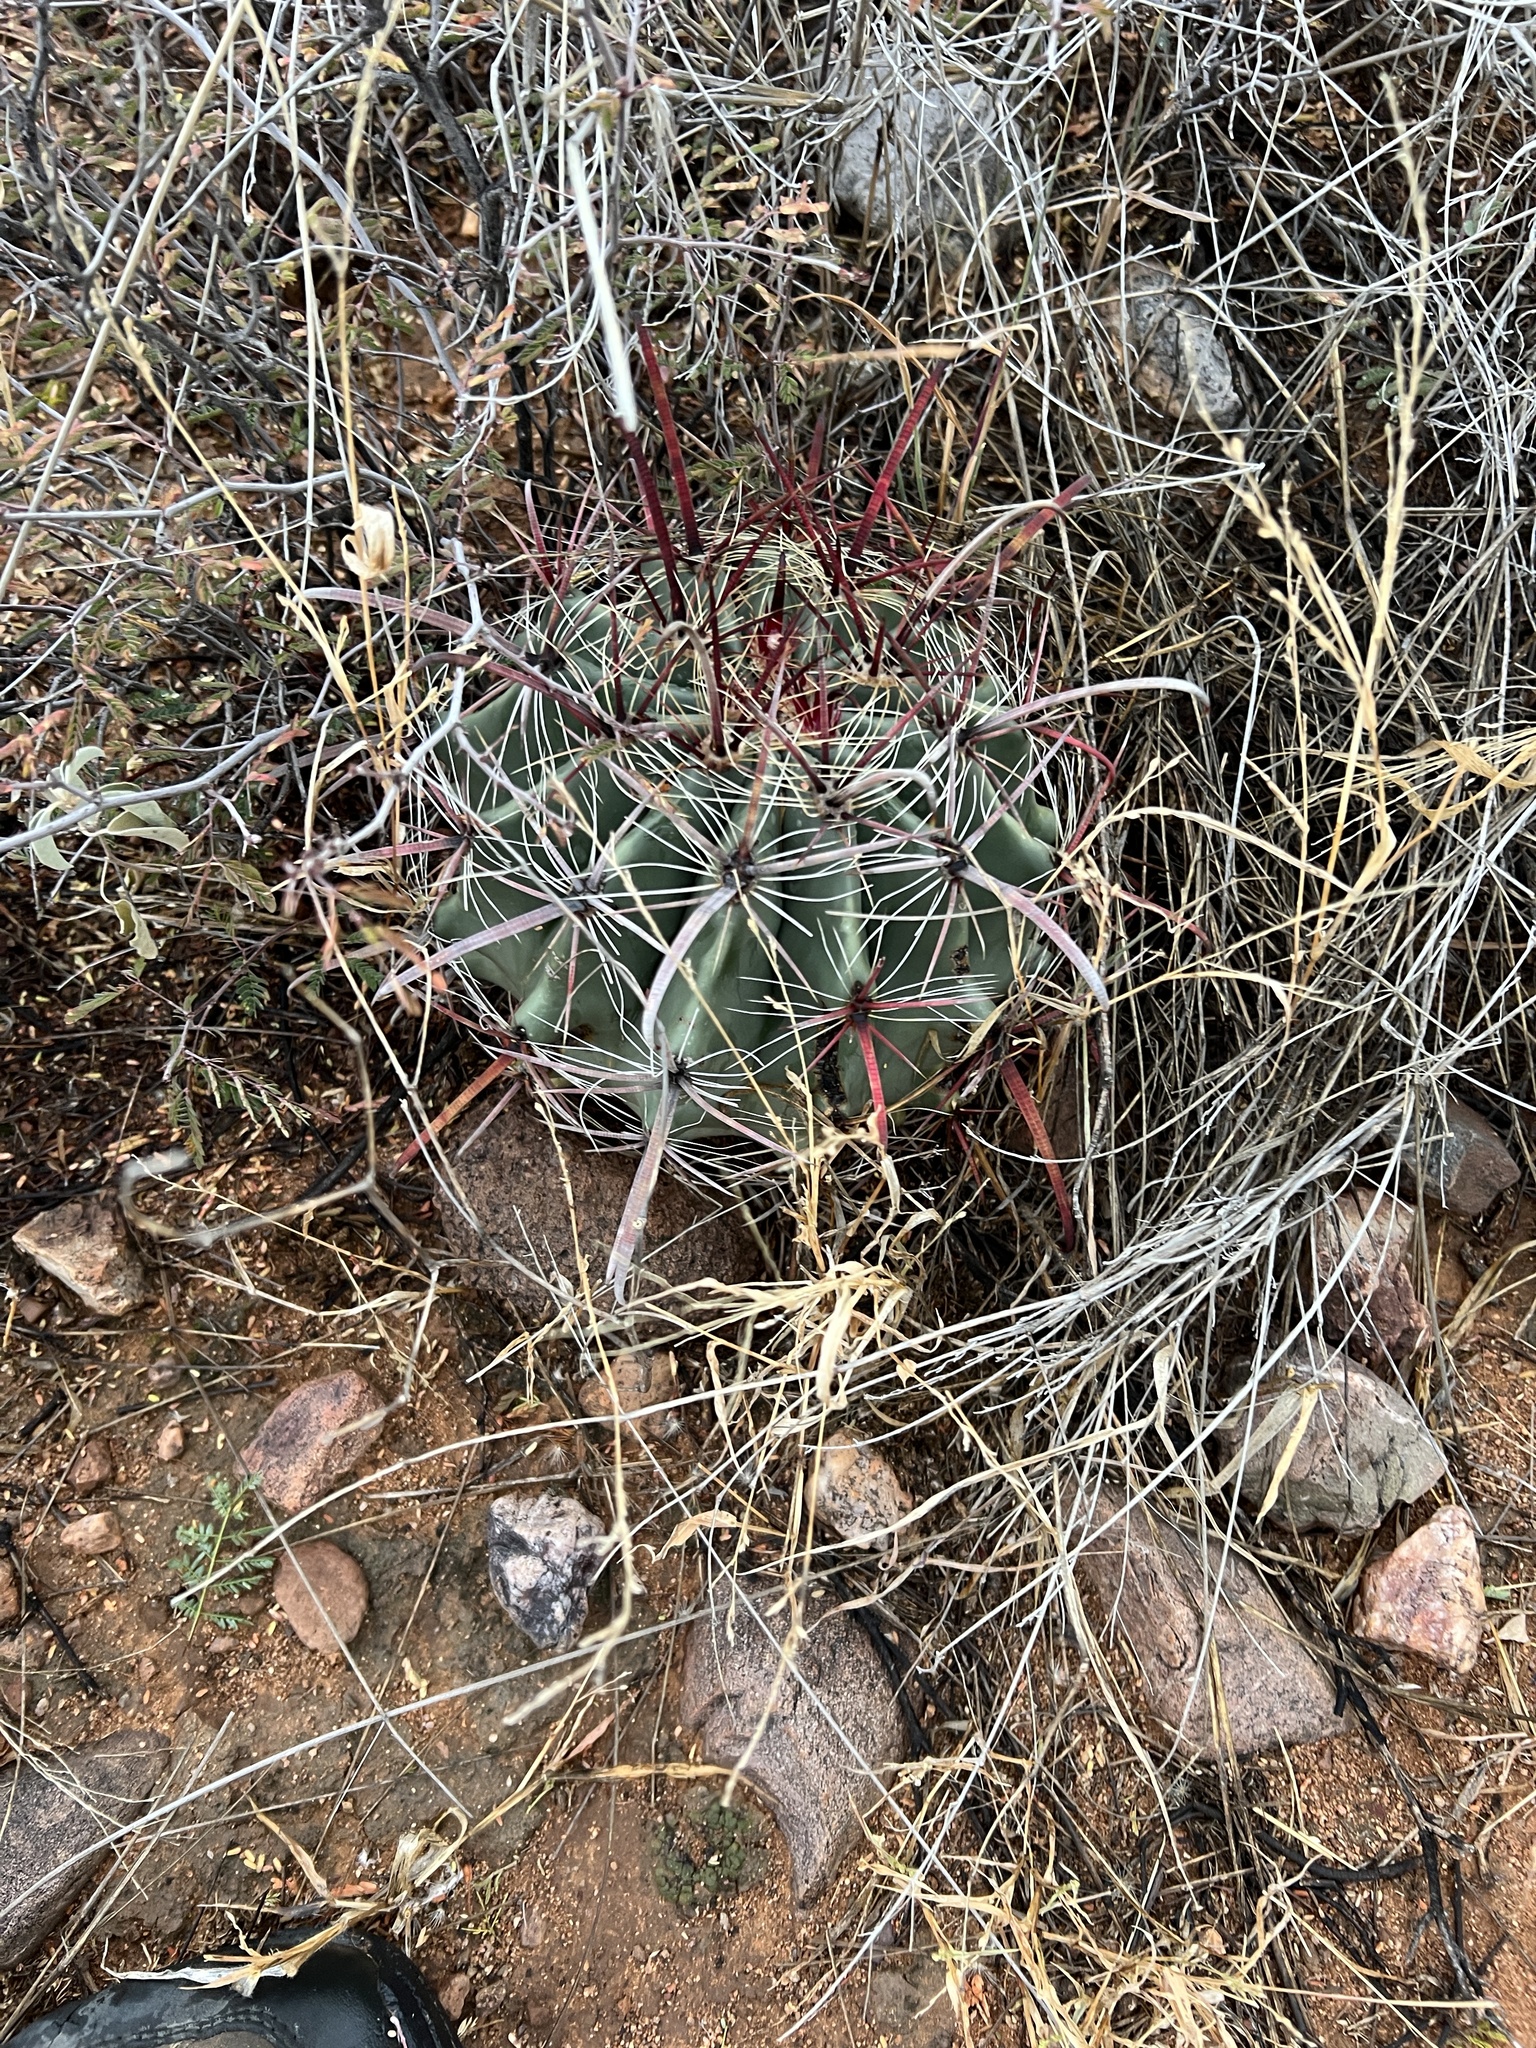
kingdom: Plantae
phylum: Tracheophyta
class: Magnoliopsida
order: Caryophyllales
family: Cactaceae
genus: Ferocactus
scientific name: Ferocactus wislizeni
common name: Candy barrel cactus
